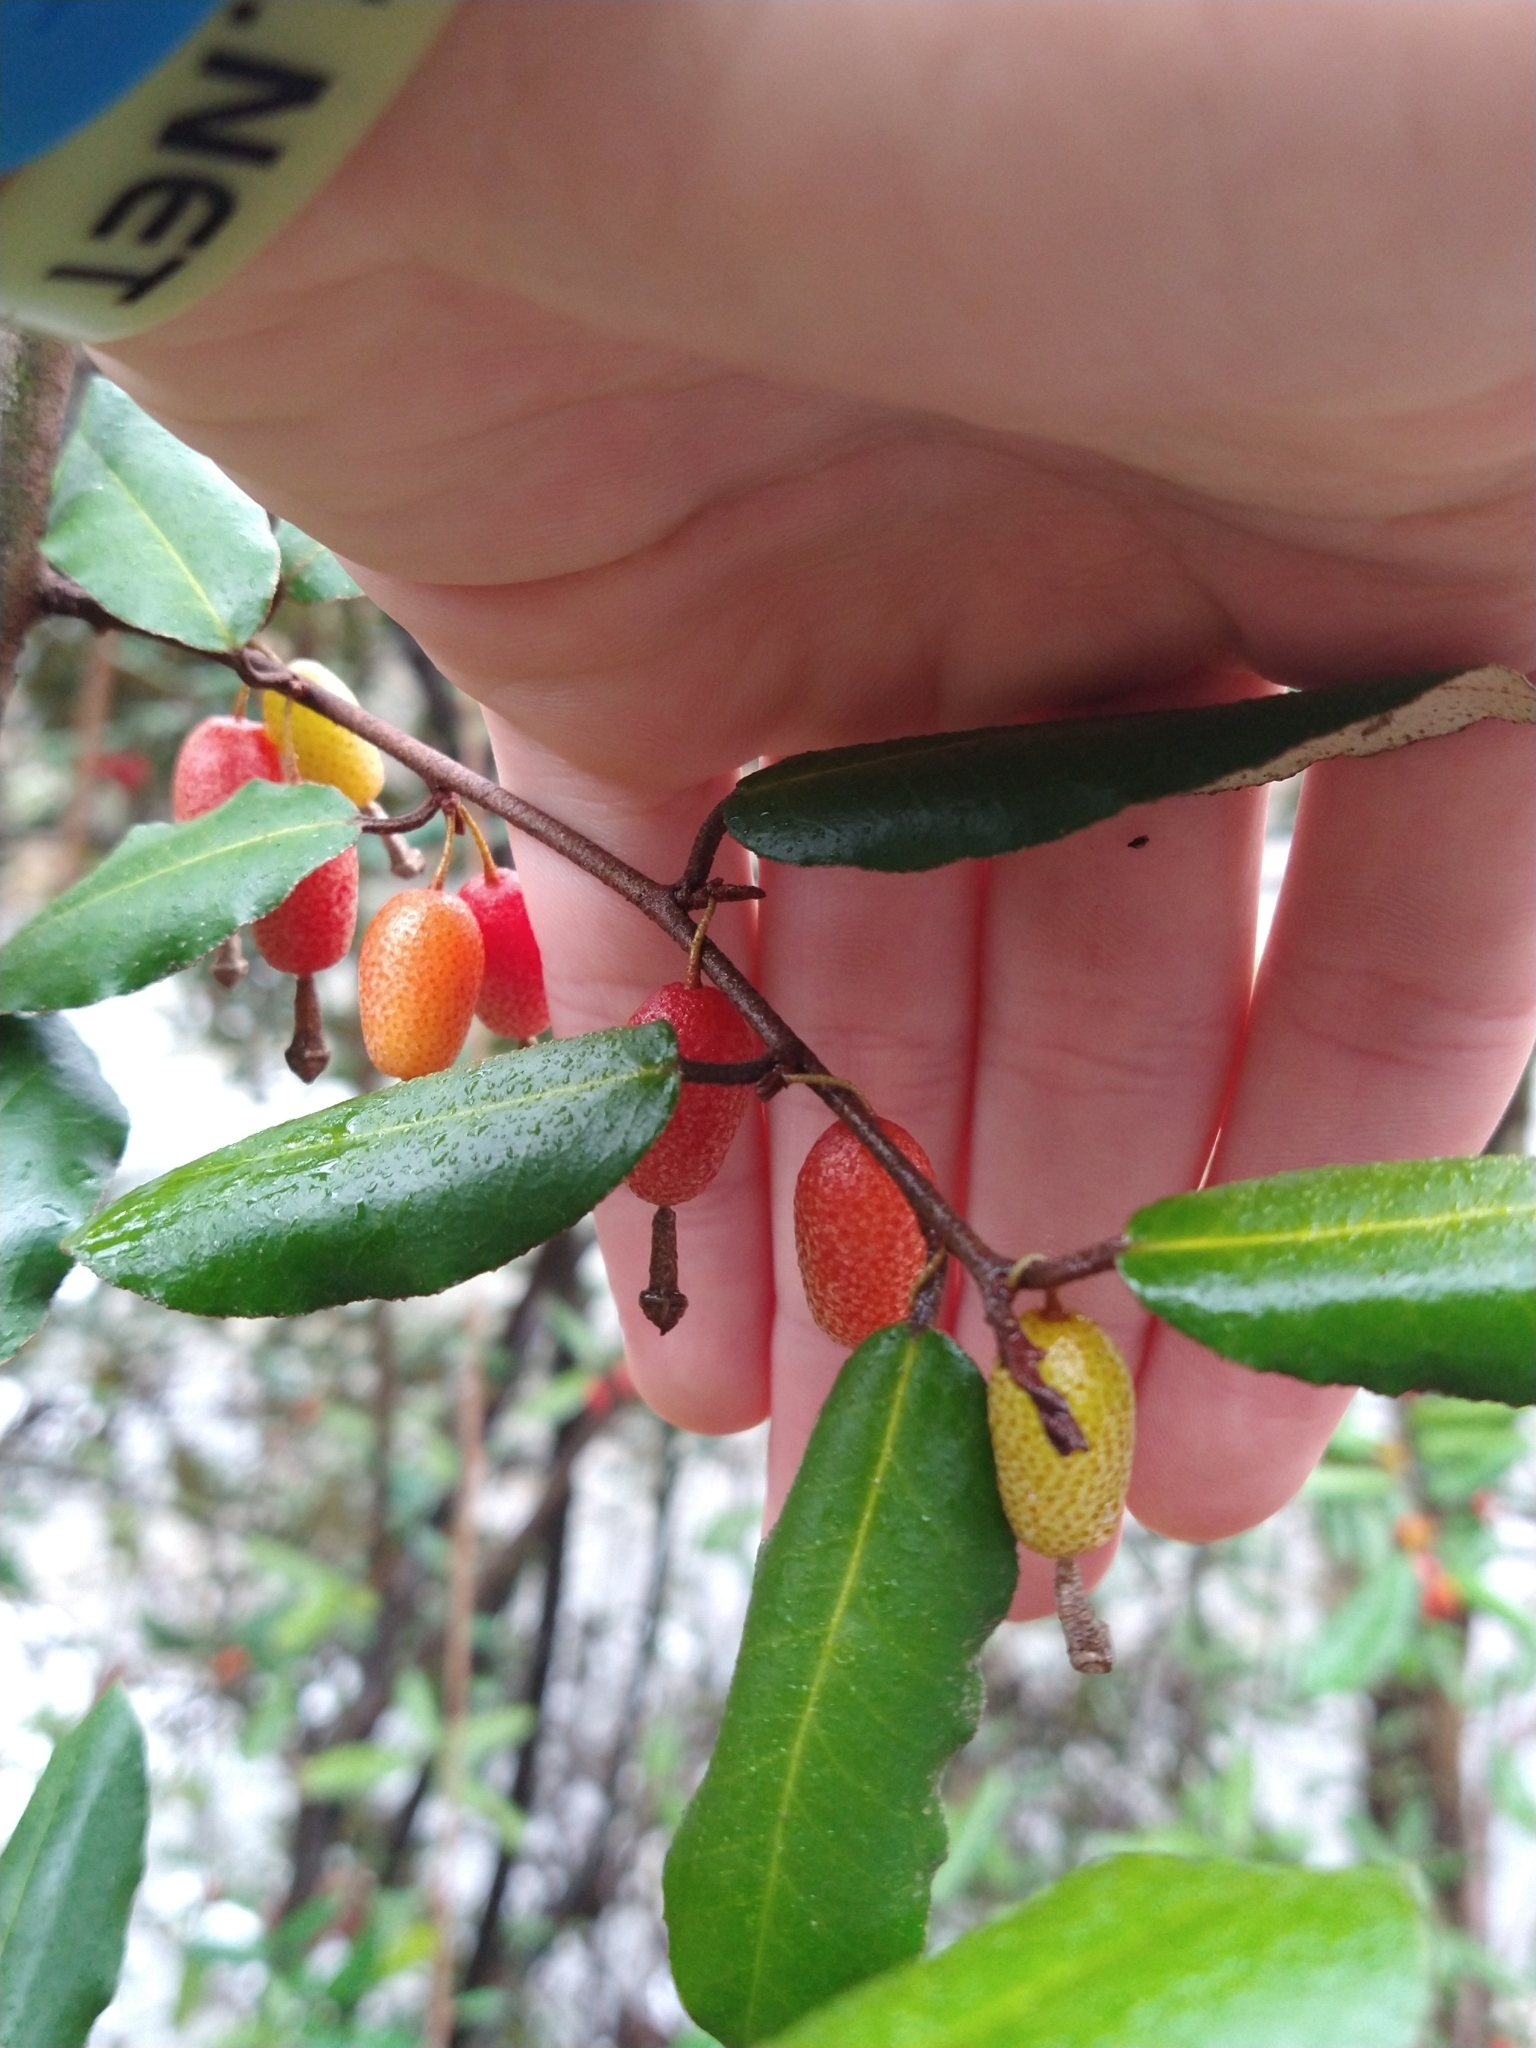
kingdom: Plantae
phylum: Tracheophyta
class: Magnoliopsida
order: Rosales
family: Elaeagnaceae
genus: Elaeagnus
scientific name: Elaeagnus pungens
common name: Spiny oleaster
